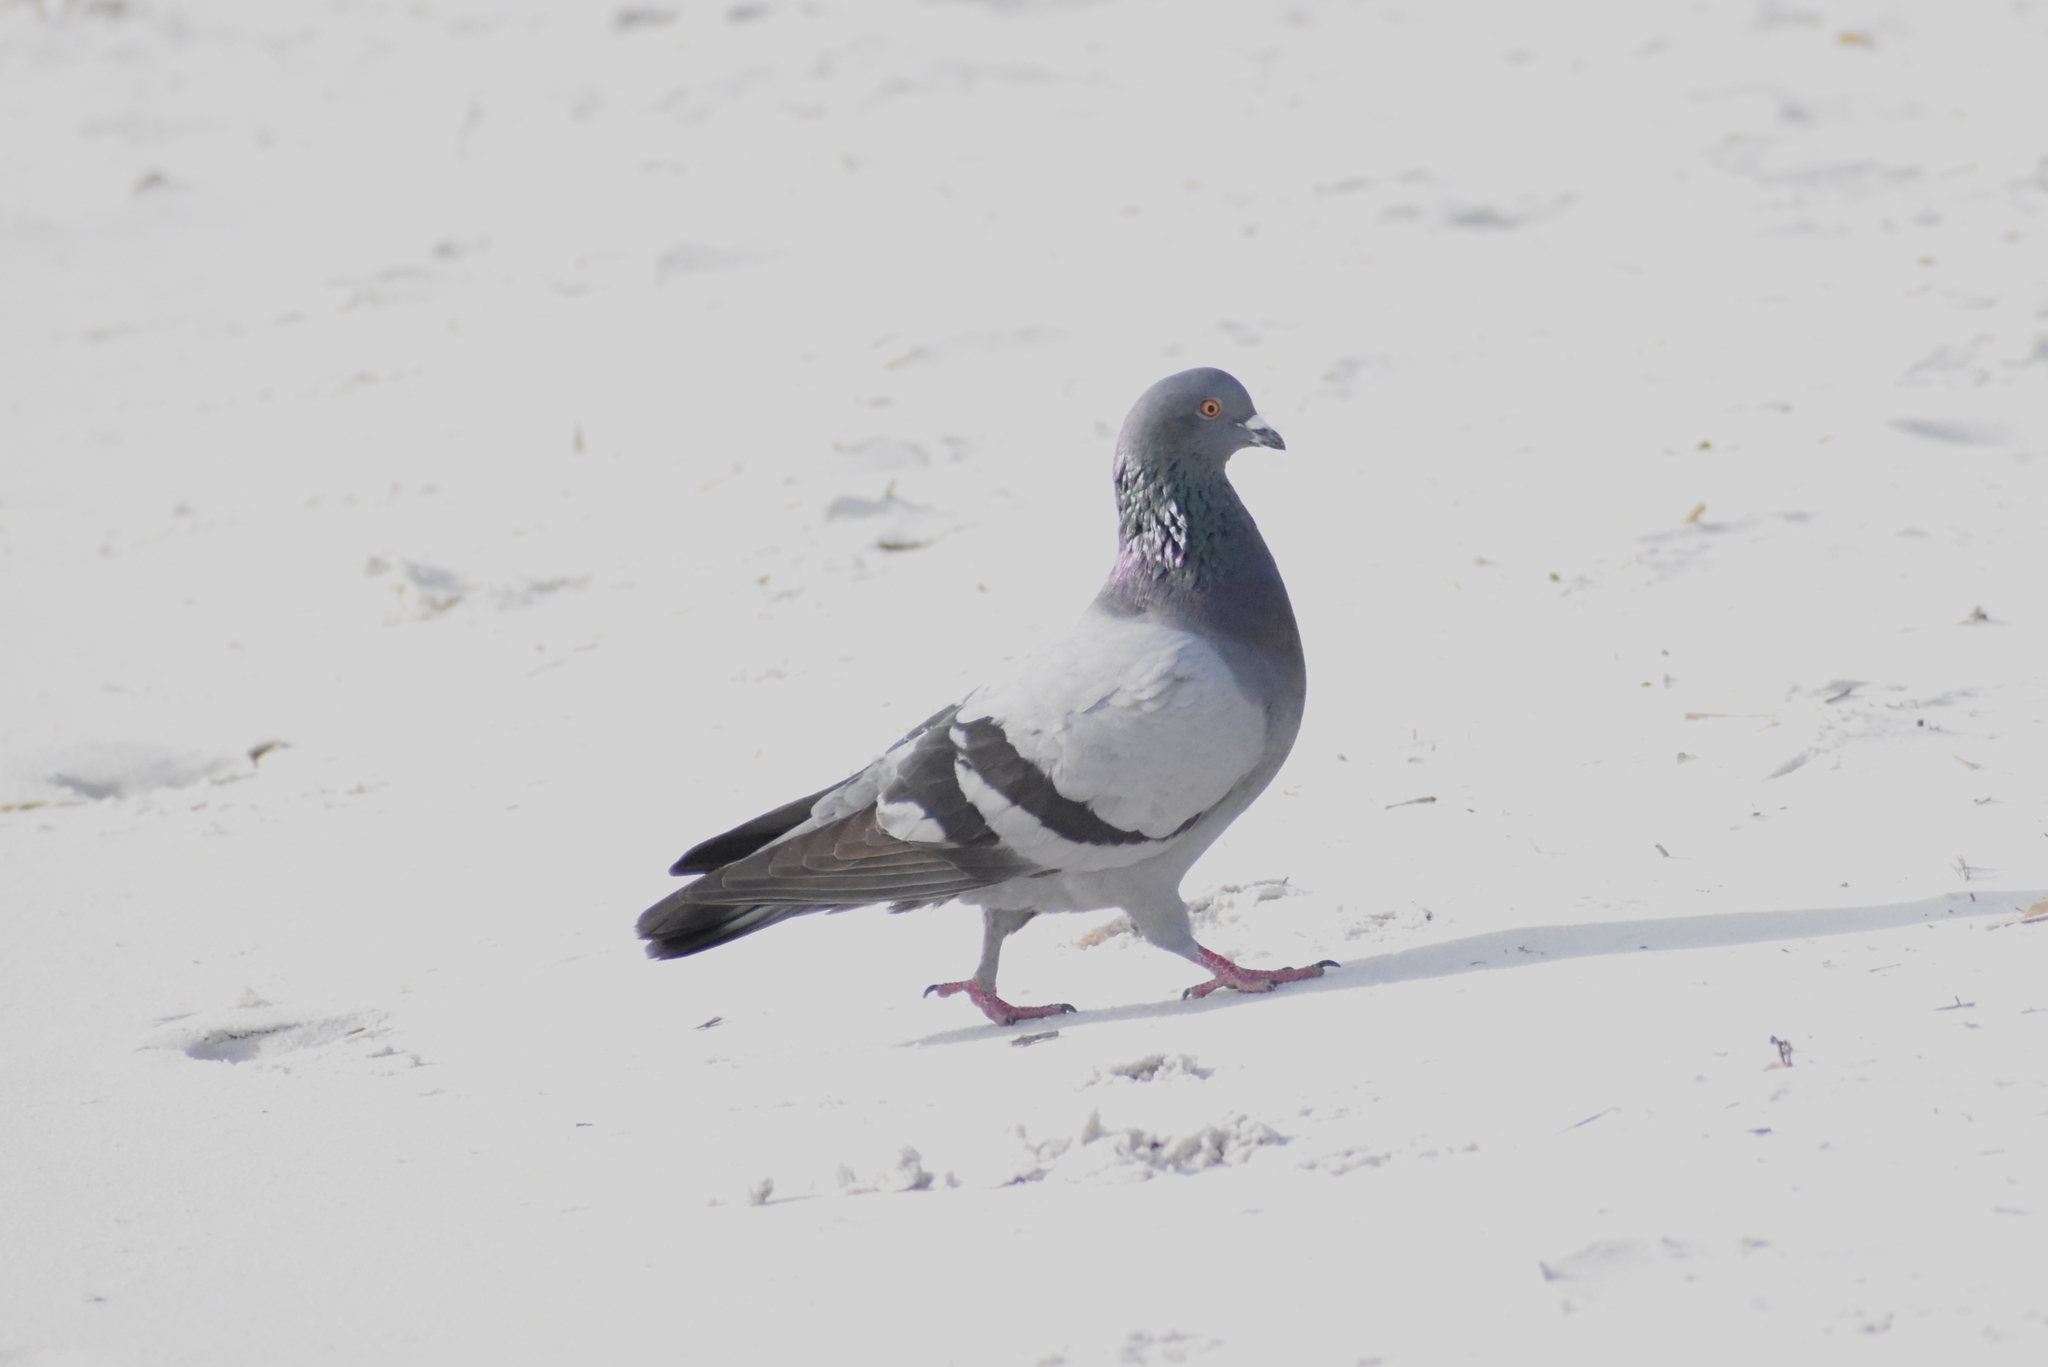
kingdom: Animalia
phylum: Chordata
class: Aves
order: Columbiformes
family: Columbidae
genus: Columba
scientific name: Columba livia
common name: Rock pigeon
